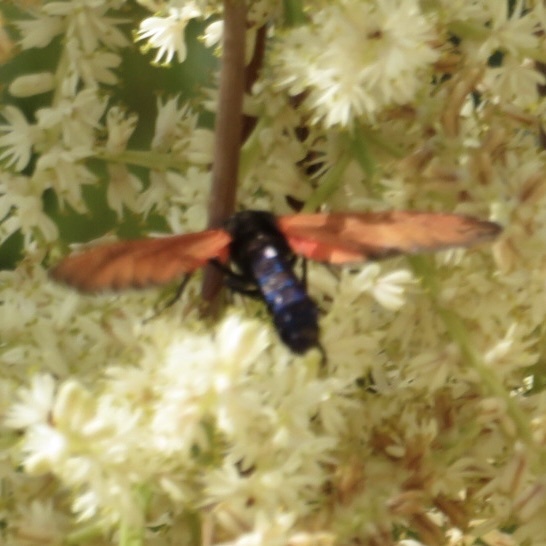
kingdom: Animalia
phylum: Arthropoda
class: Insecta
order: Lepidoptera
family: Erebidae
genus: Empyreuma
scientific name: Empyreuma pugione
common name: Spotted oleander caterpillar moth
